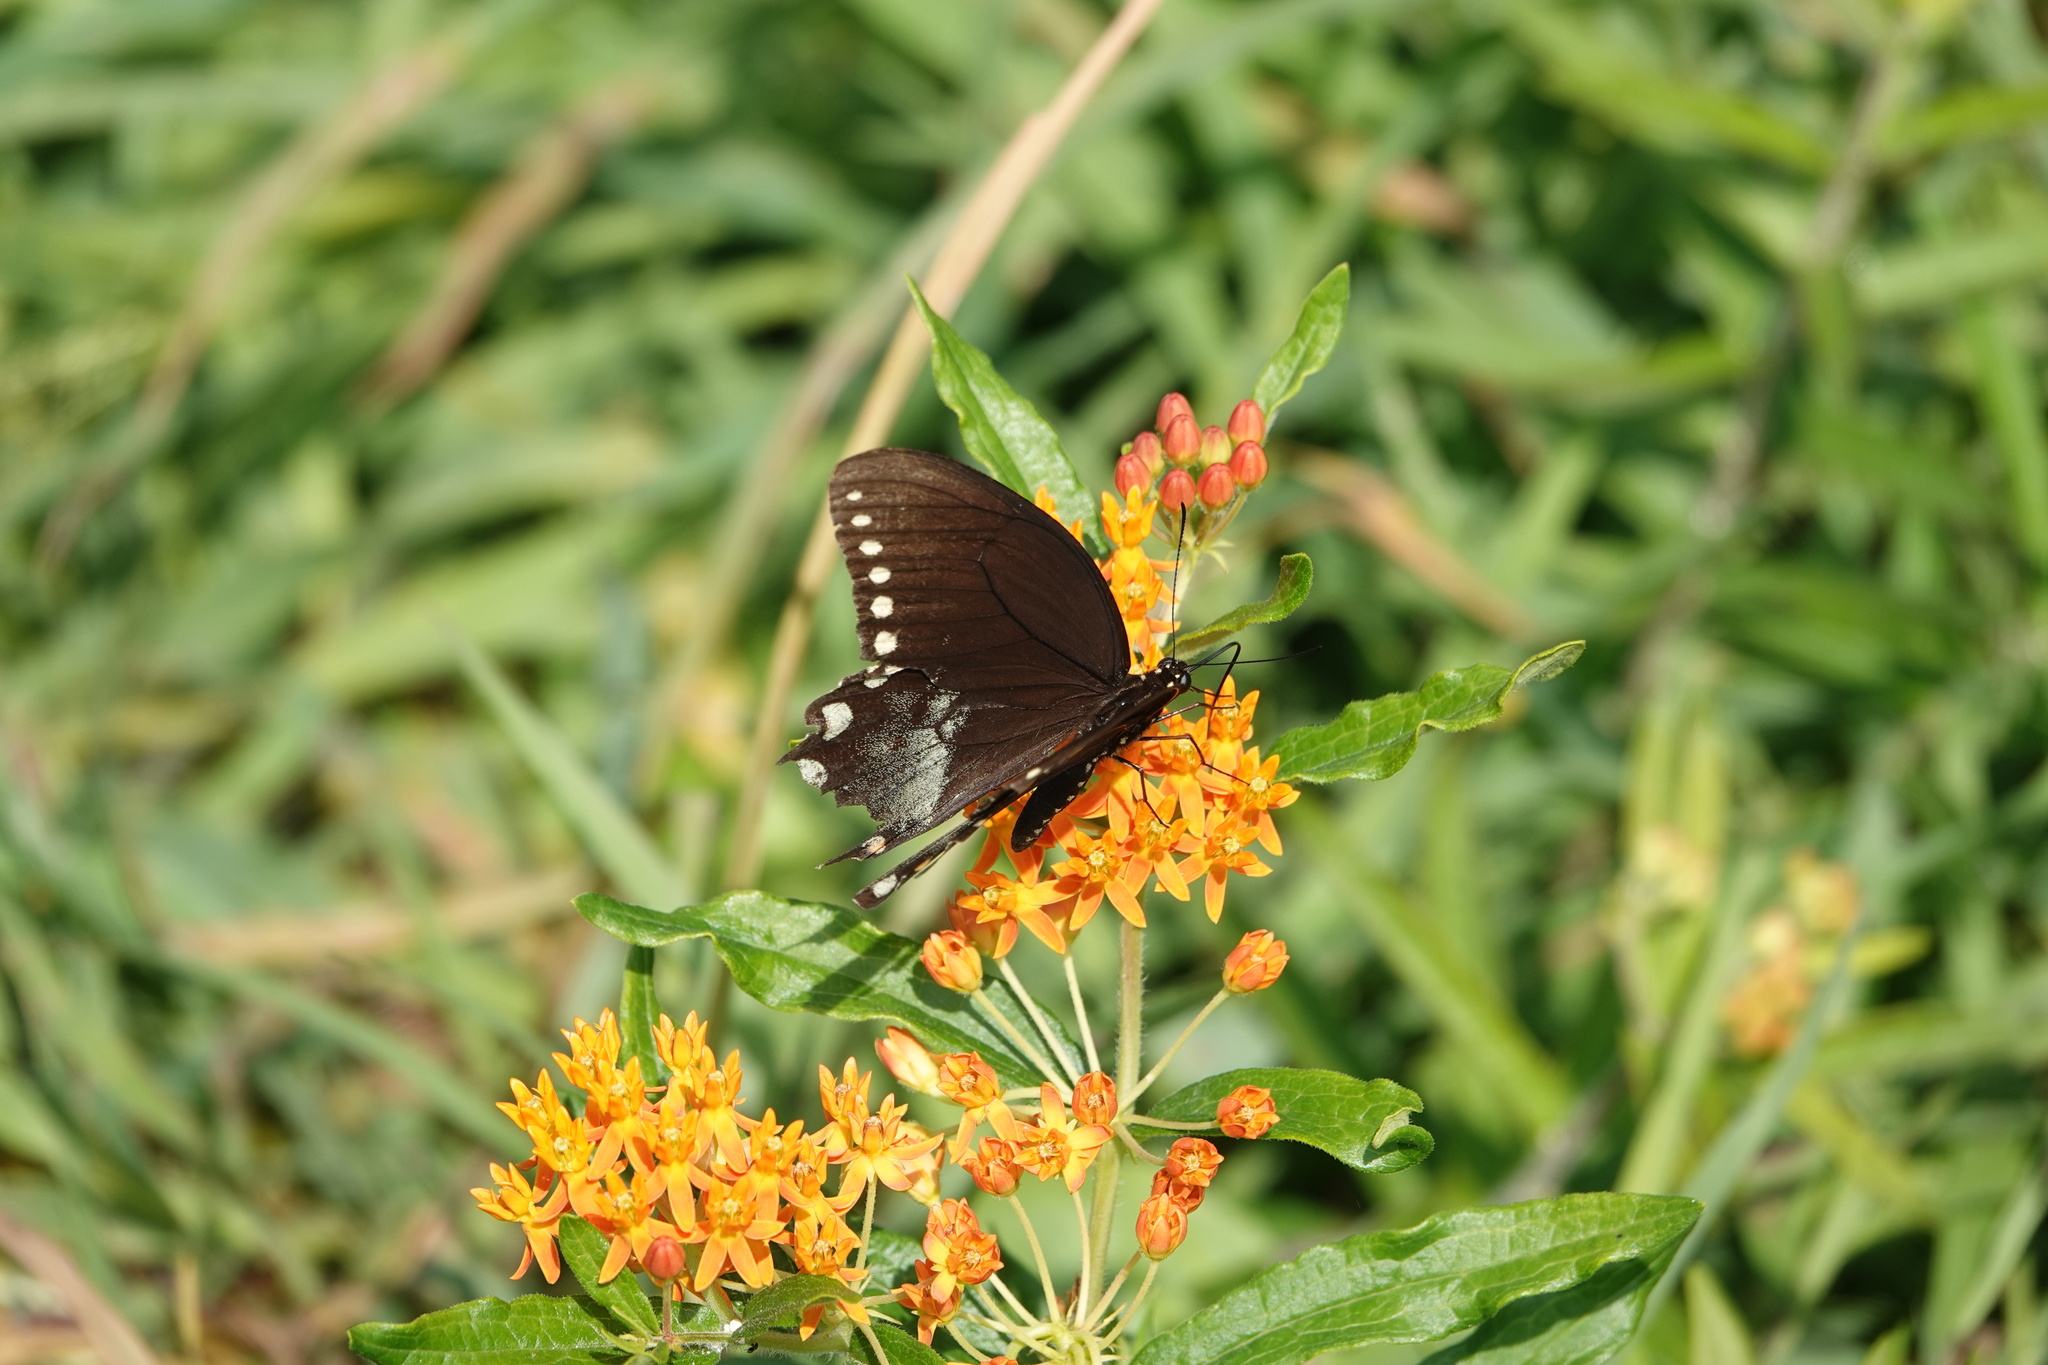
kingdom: Animalia
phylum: Arthropoda
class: Insecta
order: Lepidoptera
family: Papilionidae
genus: Papilio
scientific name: Papilio troilus
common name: Spicebush swallowtail
